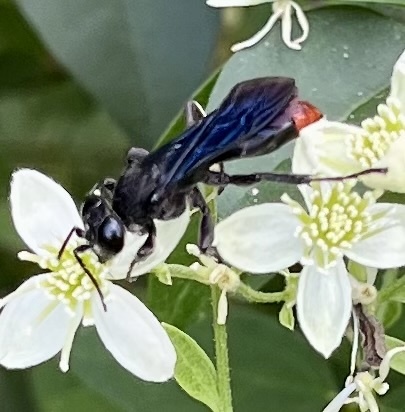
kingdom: Animalia
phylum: Arthropoda
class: Insecta
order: Hymenoptera
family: Crabronidae
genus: Larra
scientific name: Larra analis
